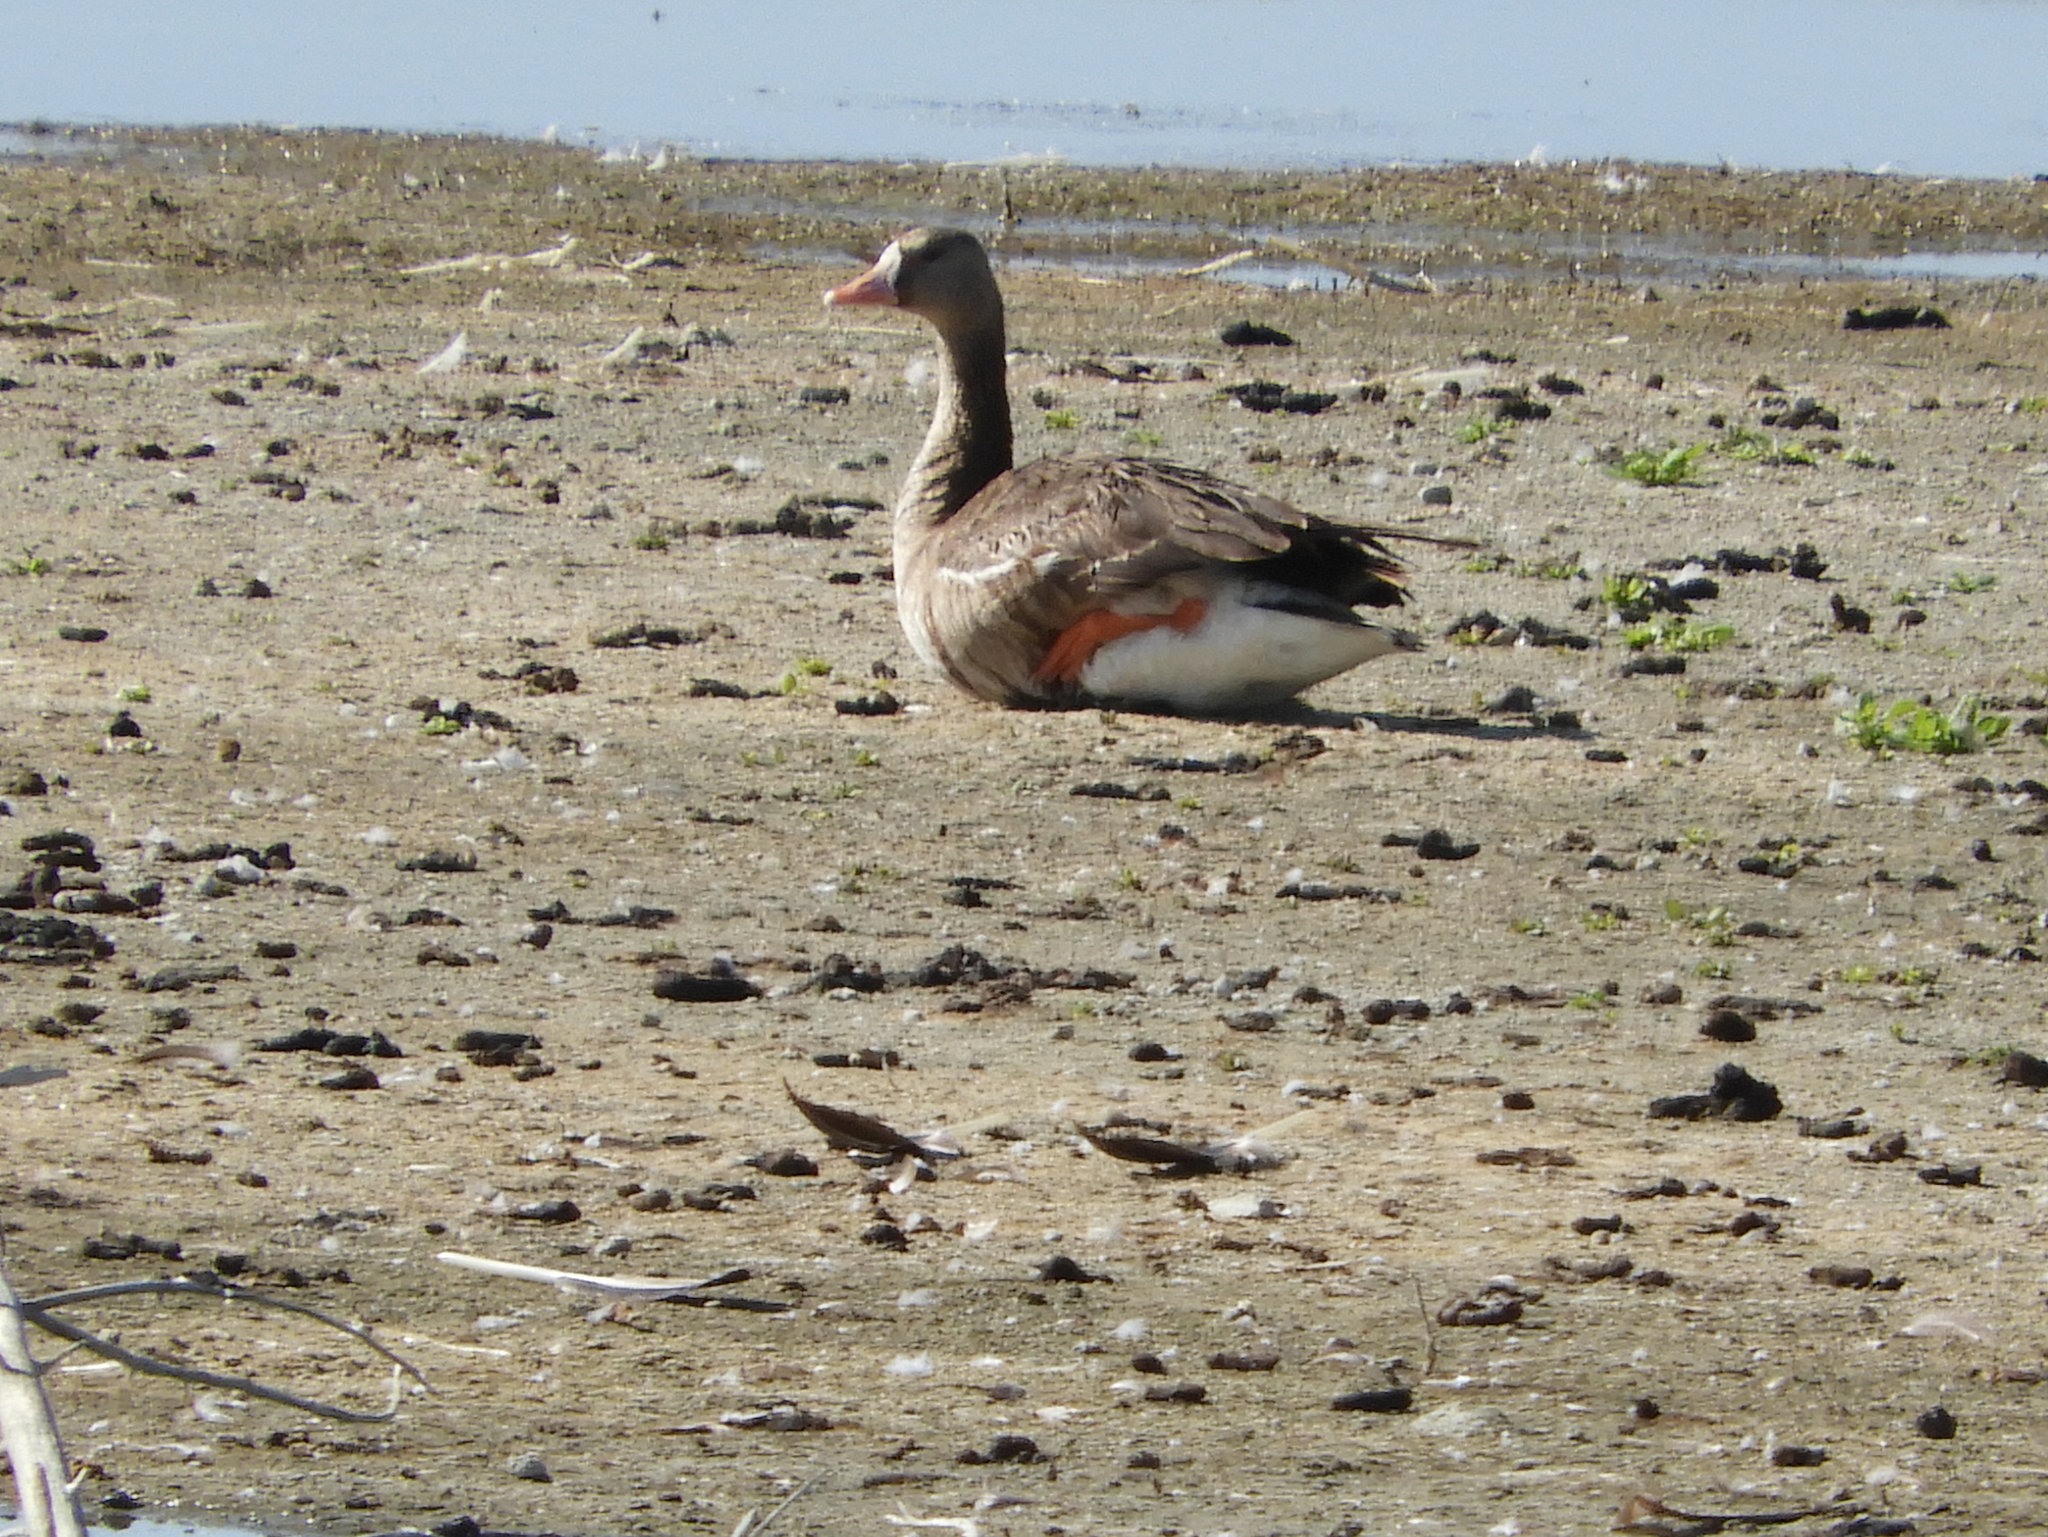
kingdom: Animalia
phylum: Chordata
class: Aves
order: Anseriformes
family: Anatidae
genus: Anser
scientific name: Anser albifrons
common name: Greater white-fronted goose
